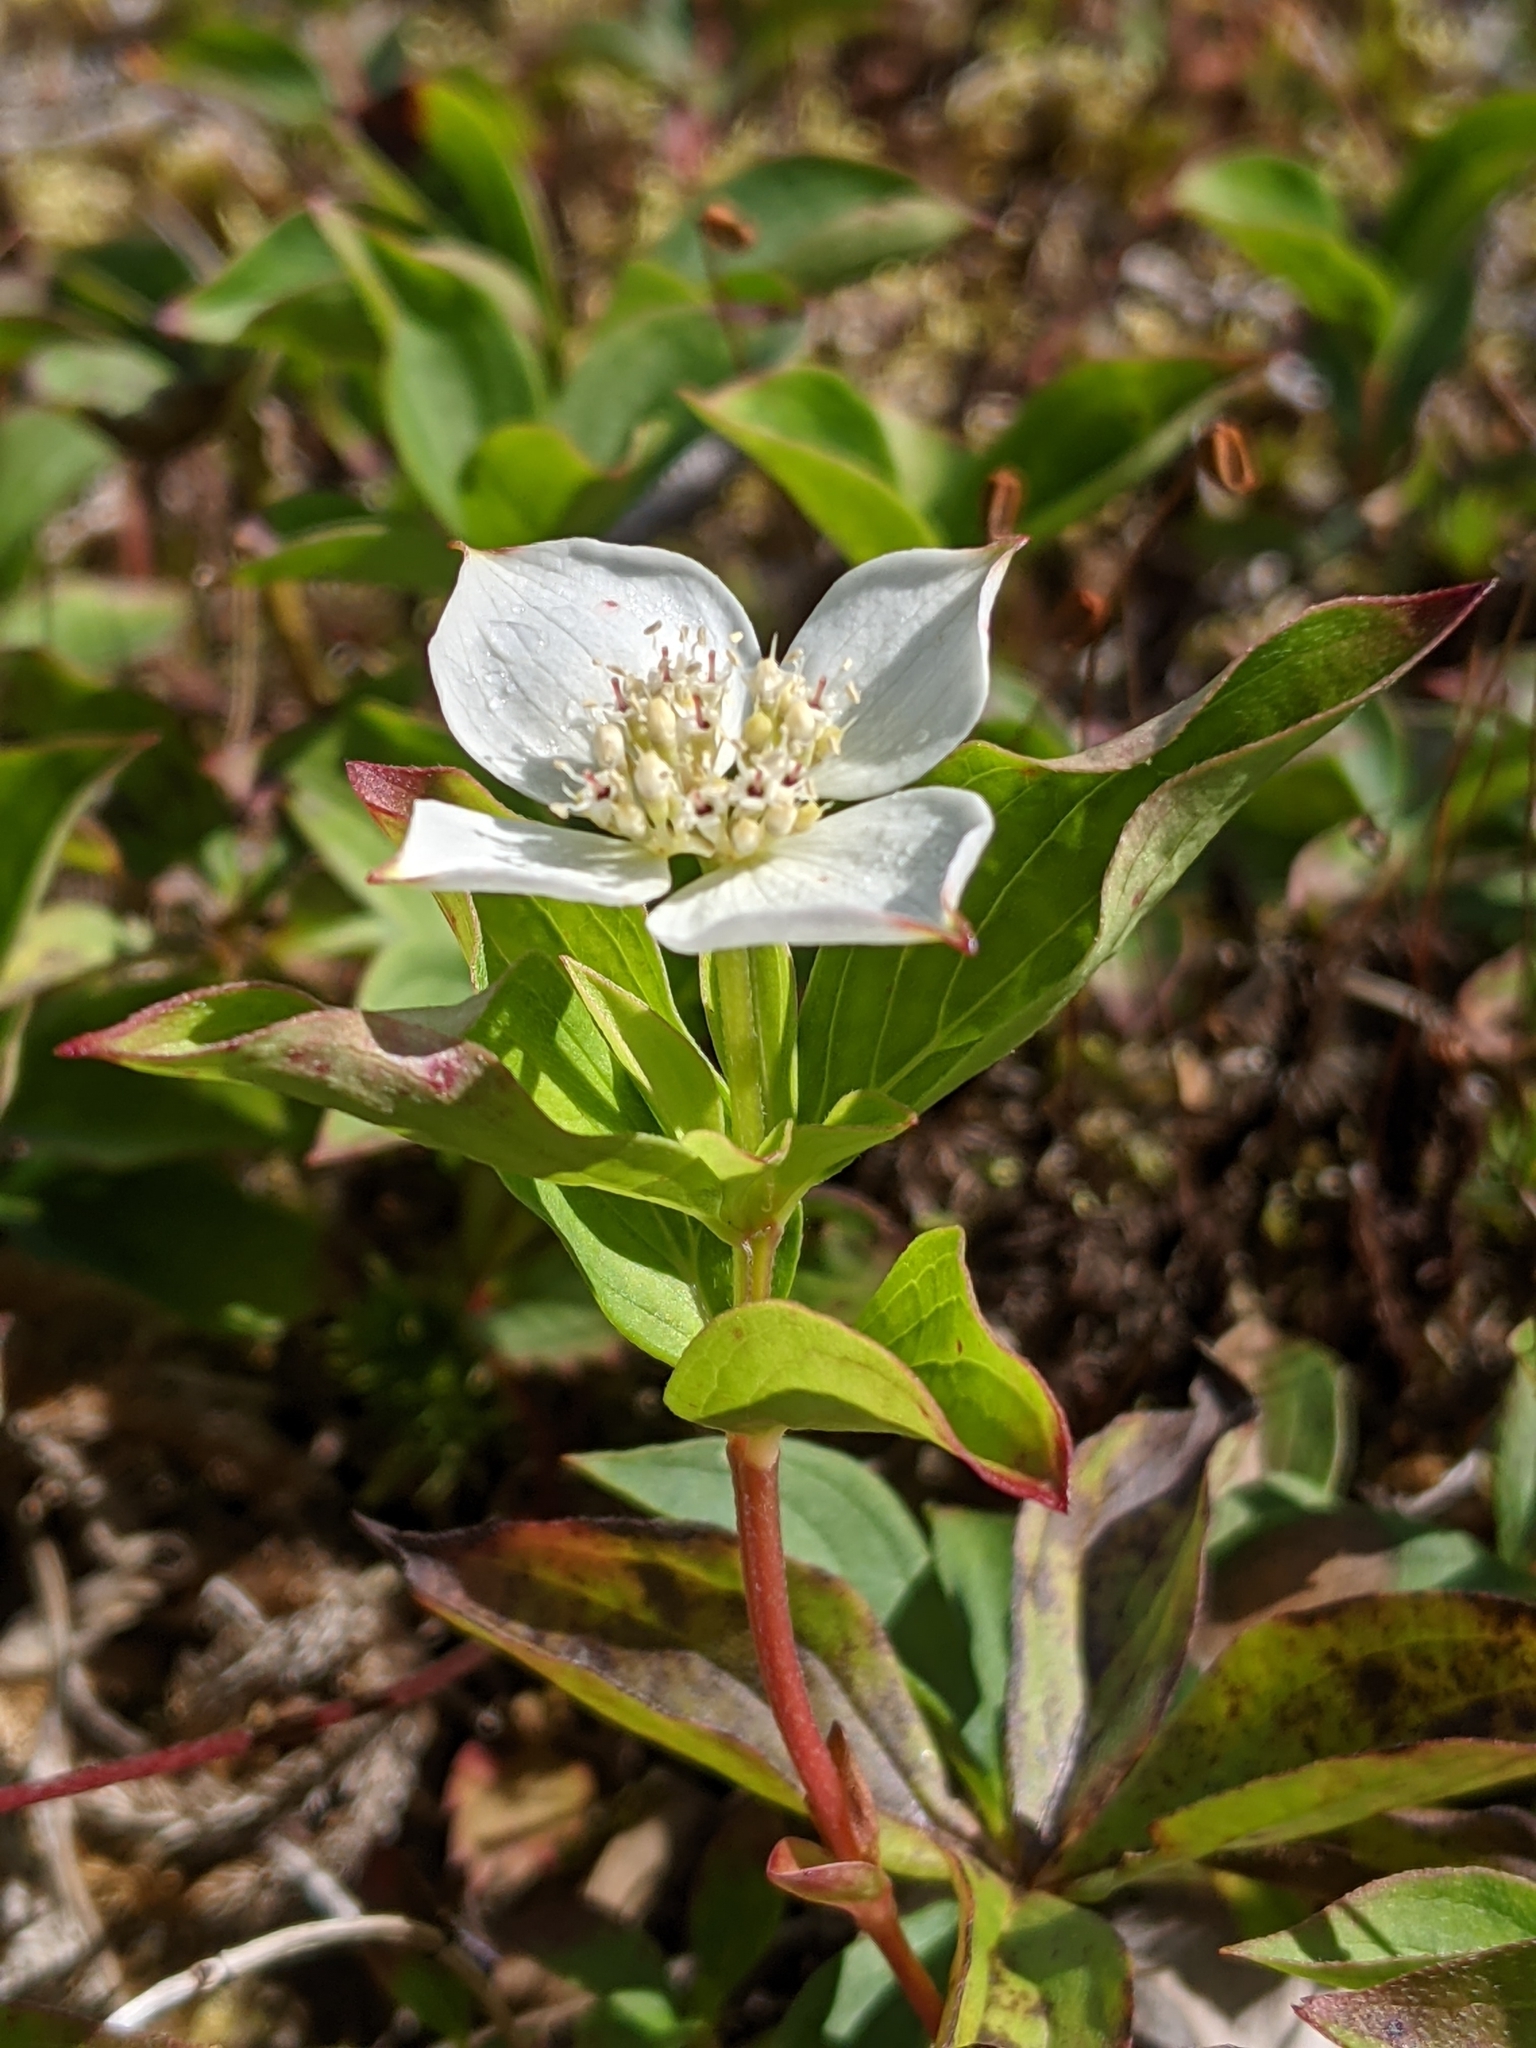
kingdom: Plantae
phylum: Tracheophyta
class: Magnoliopsida
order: Cornales
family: Cornaceae
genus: Cornus
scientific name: Cornus canadensis
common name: Creeping dogwood
